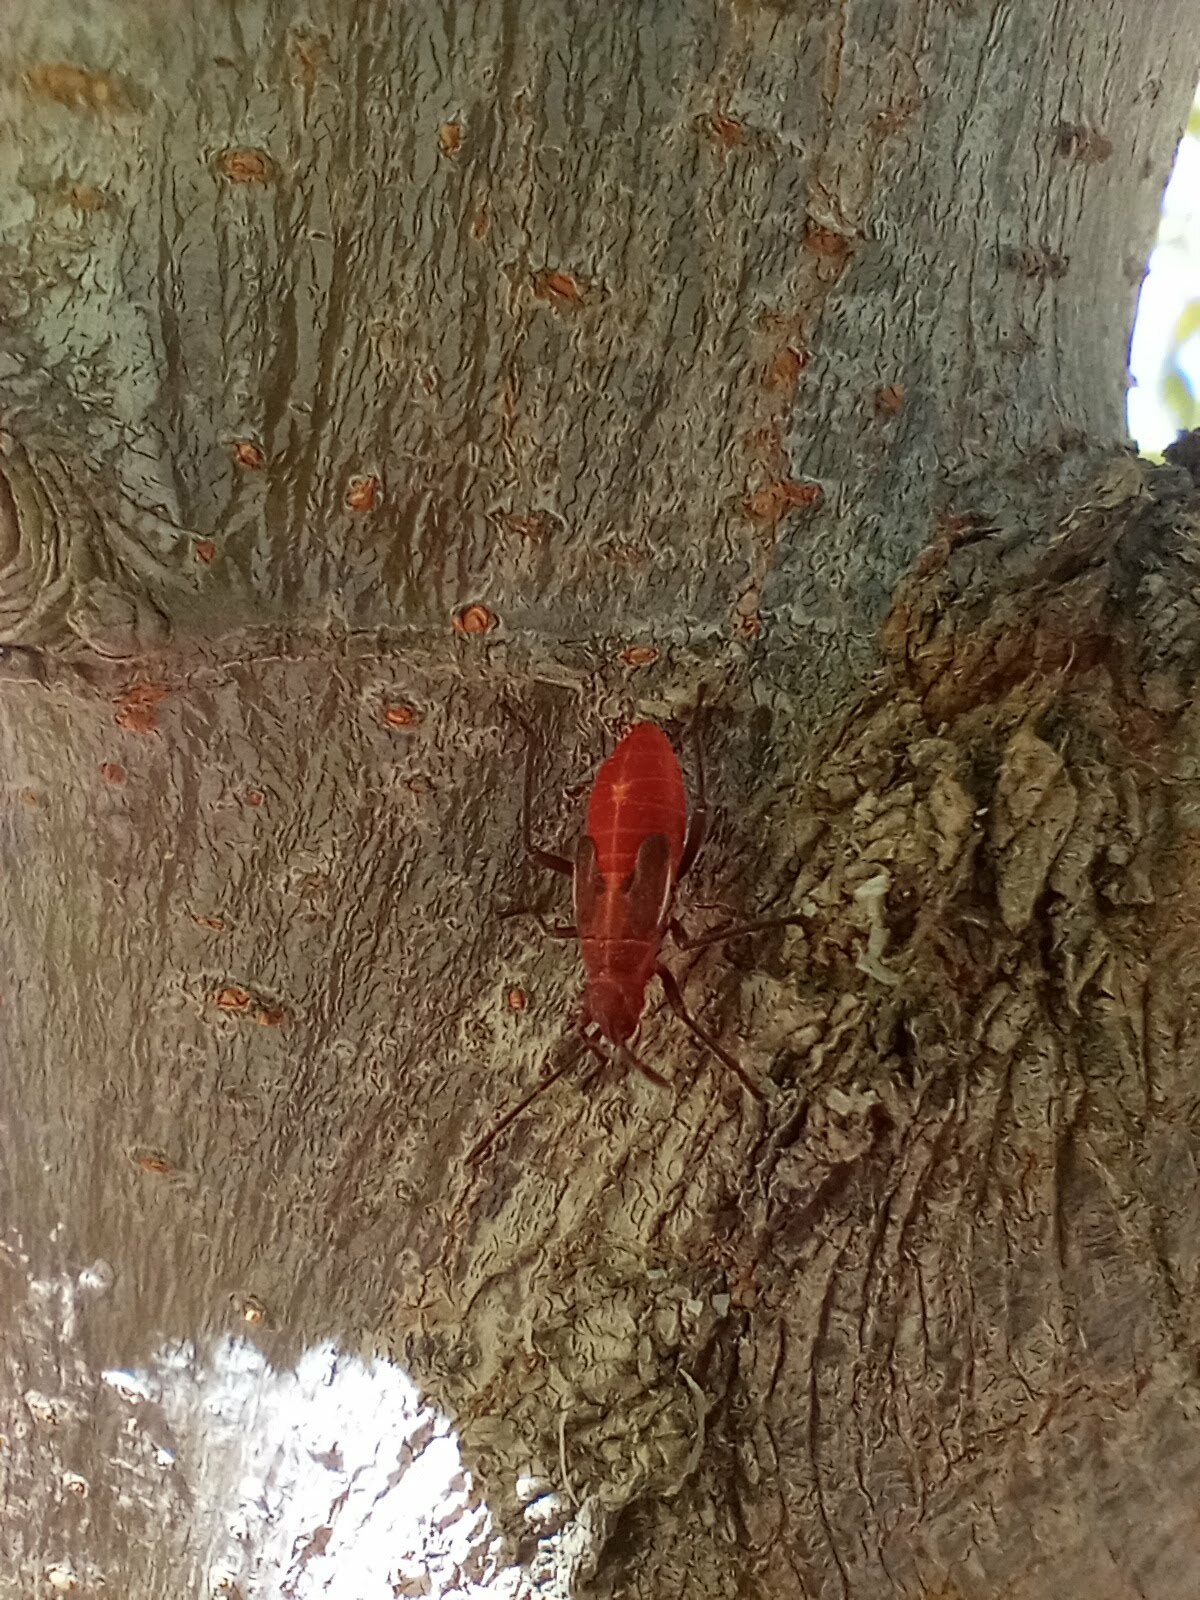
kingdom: Animalia
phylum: Arthropoda
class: Insecta
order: Hemiptera
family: Rhopalidae
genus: Boisea
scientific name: Boisea rubrolineata
